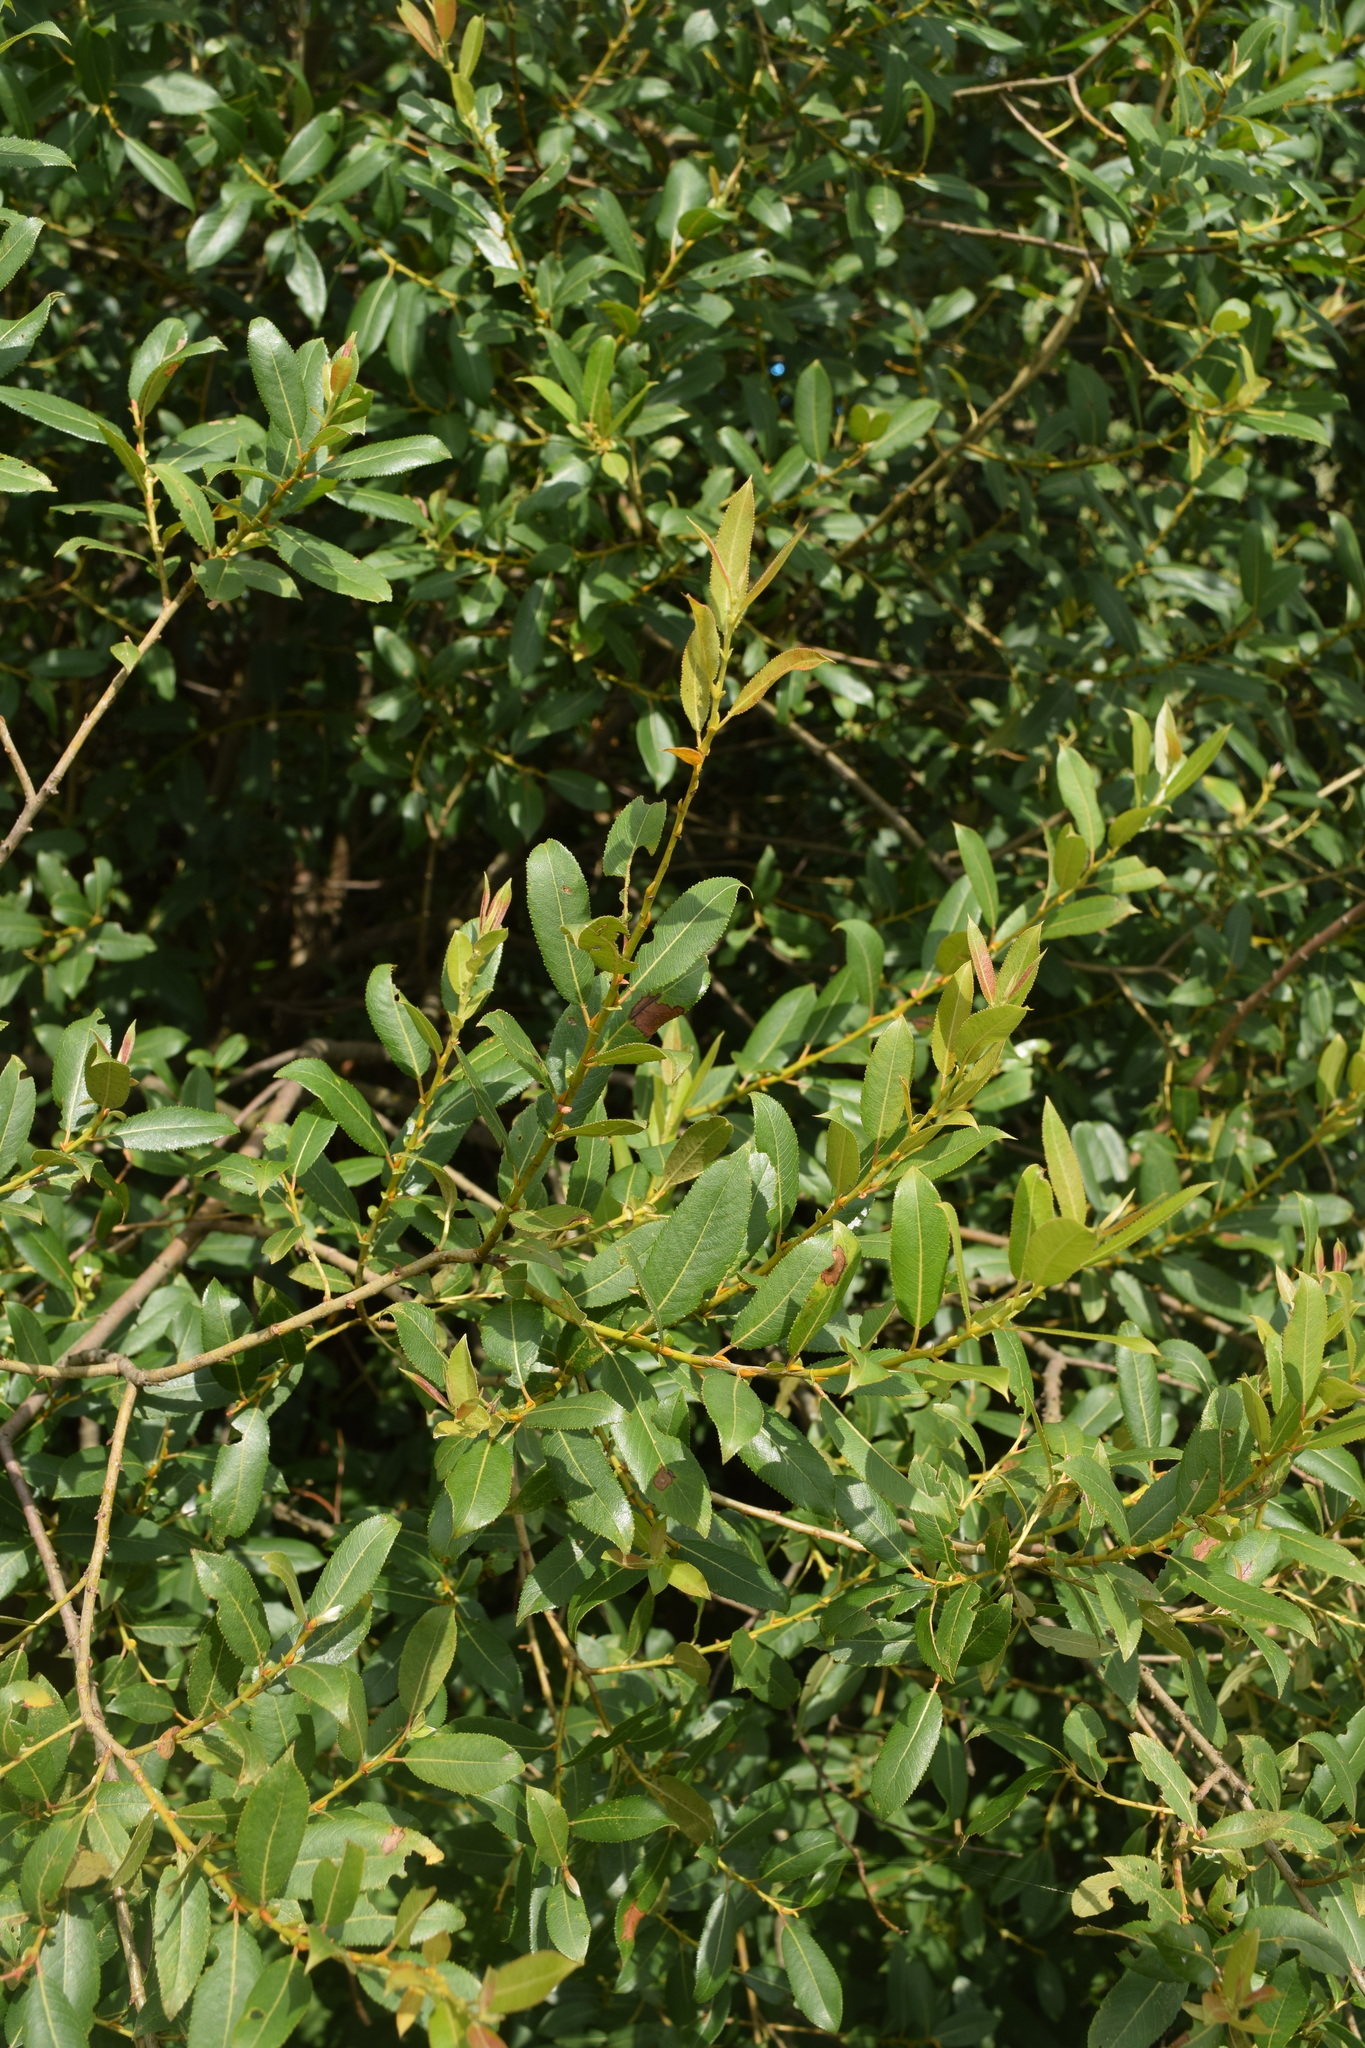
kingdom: Plantae
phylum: Tracheophyta
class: Magnoliopsida
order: Malpighiales
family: Salicaceae
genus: Salix
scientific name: Salix triandra
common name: Almond willow
